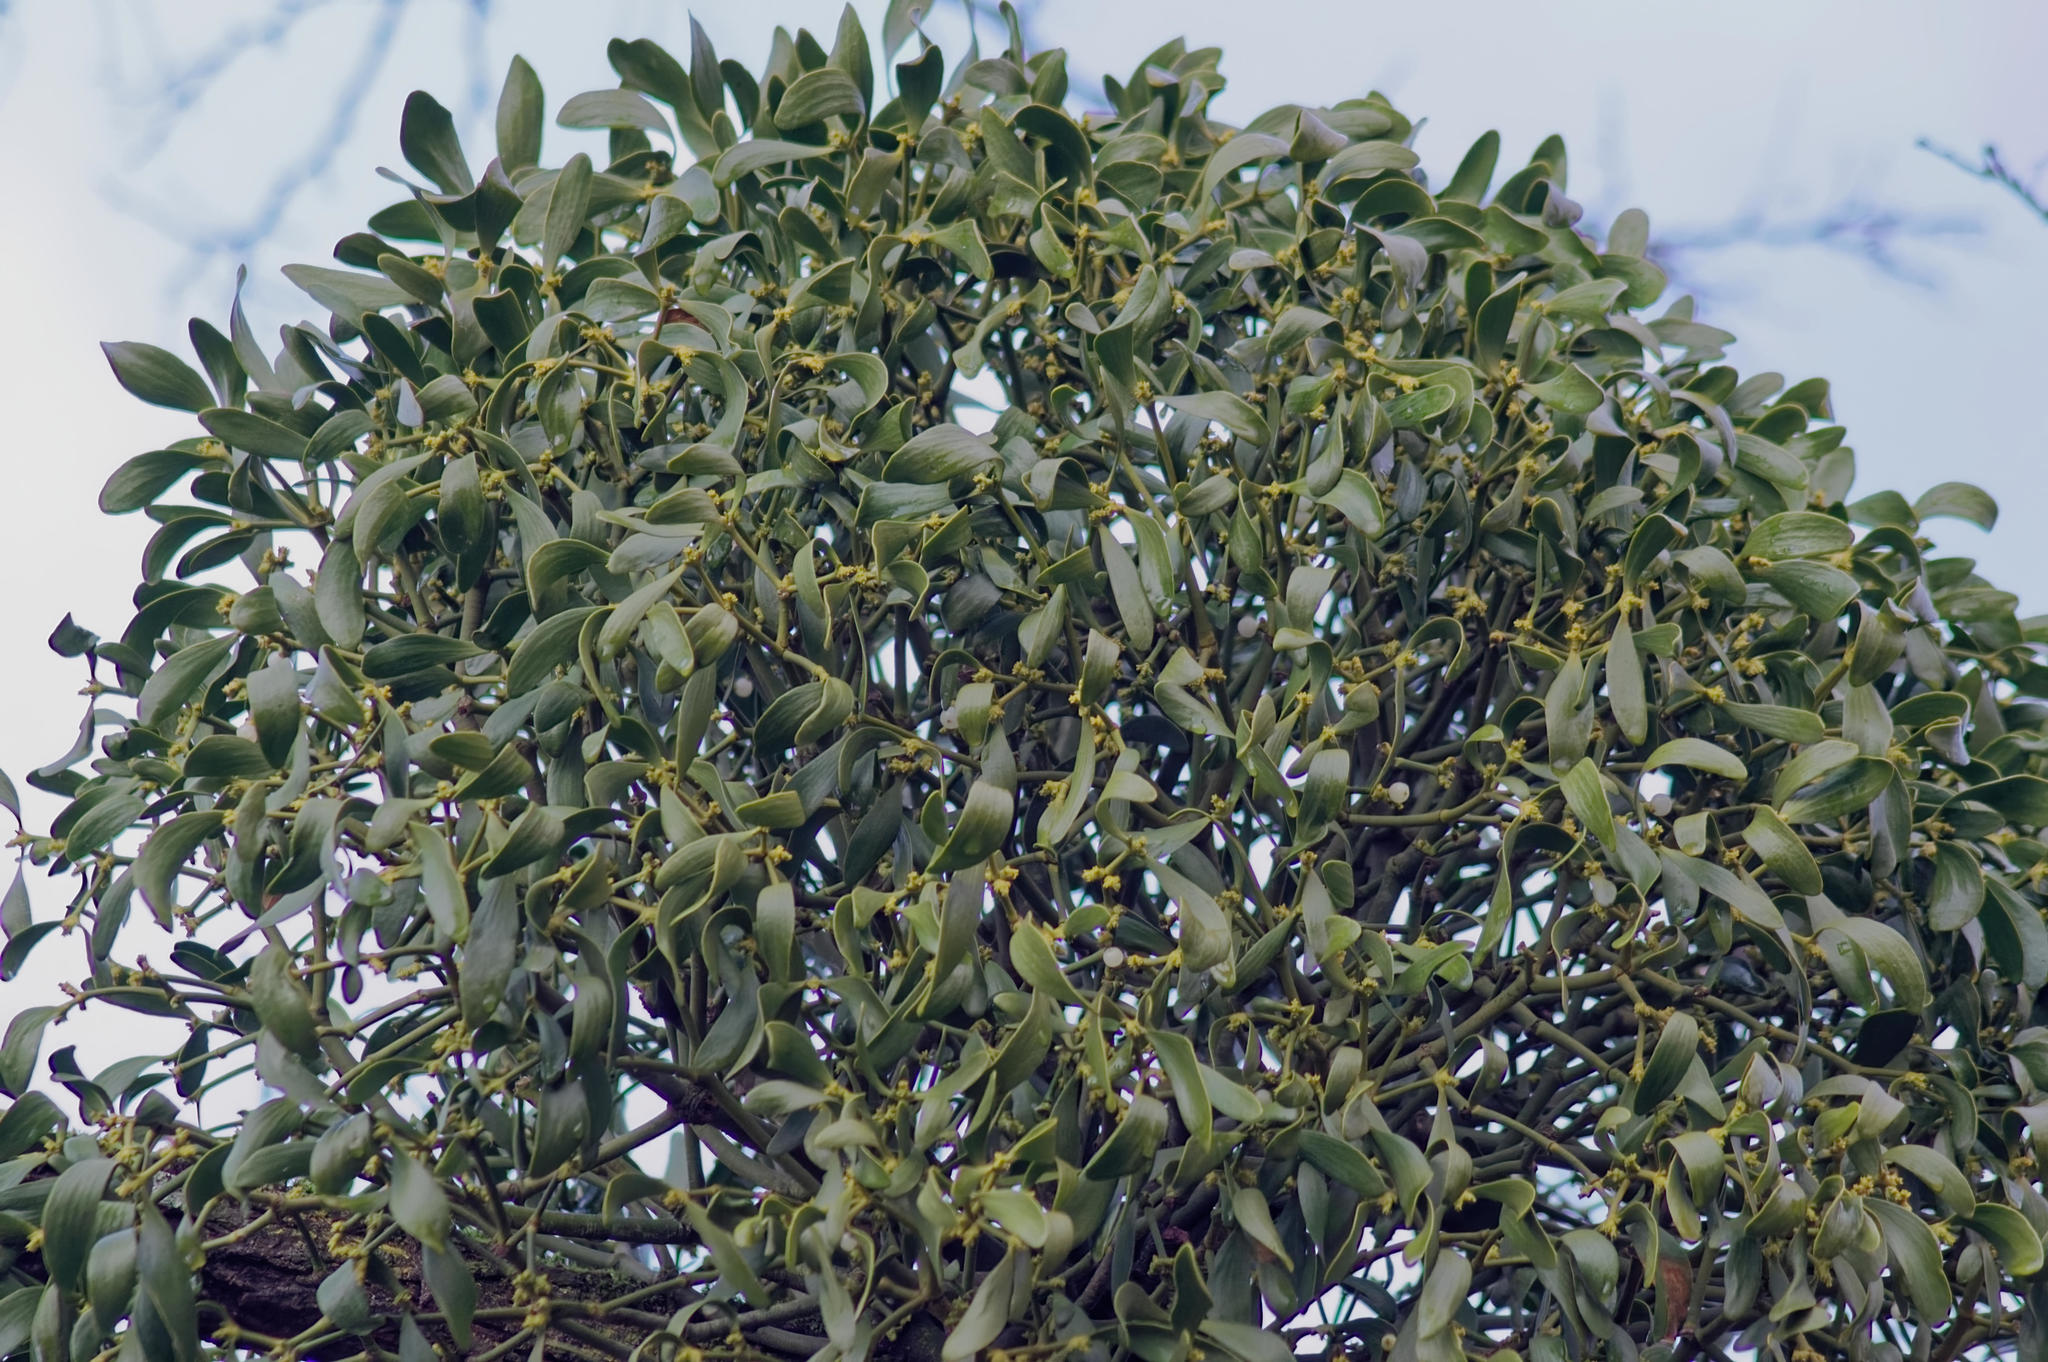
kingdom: Plantae
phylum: Tracheophyta
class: Magnoliopsida
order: Santalales
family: Viscaceae
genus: Viscum
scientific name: Viscum album
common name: Mistletoe
